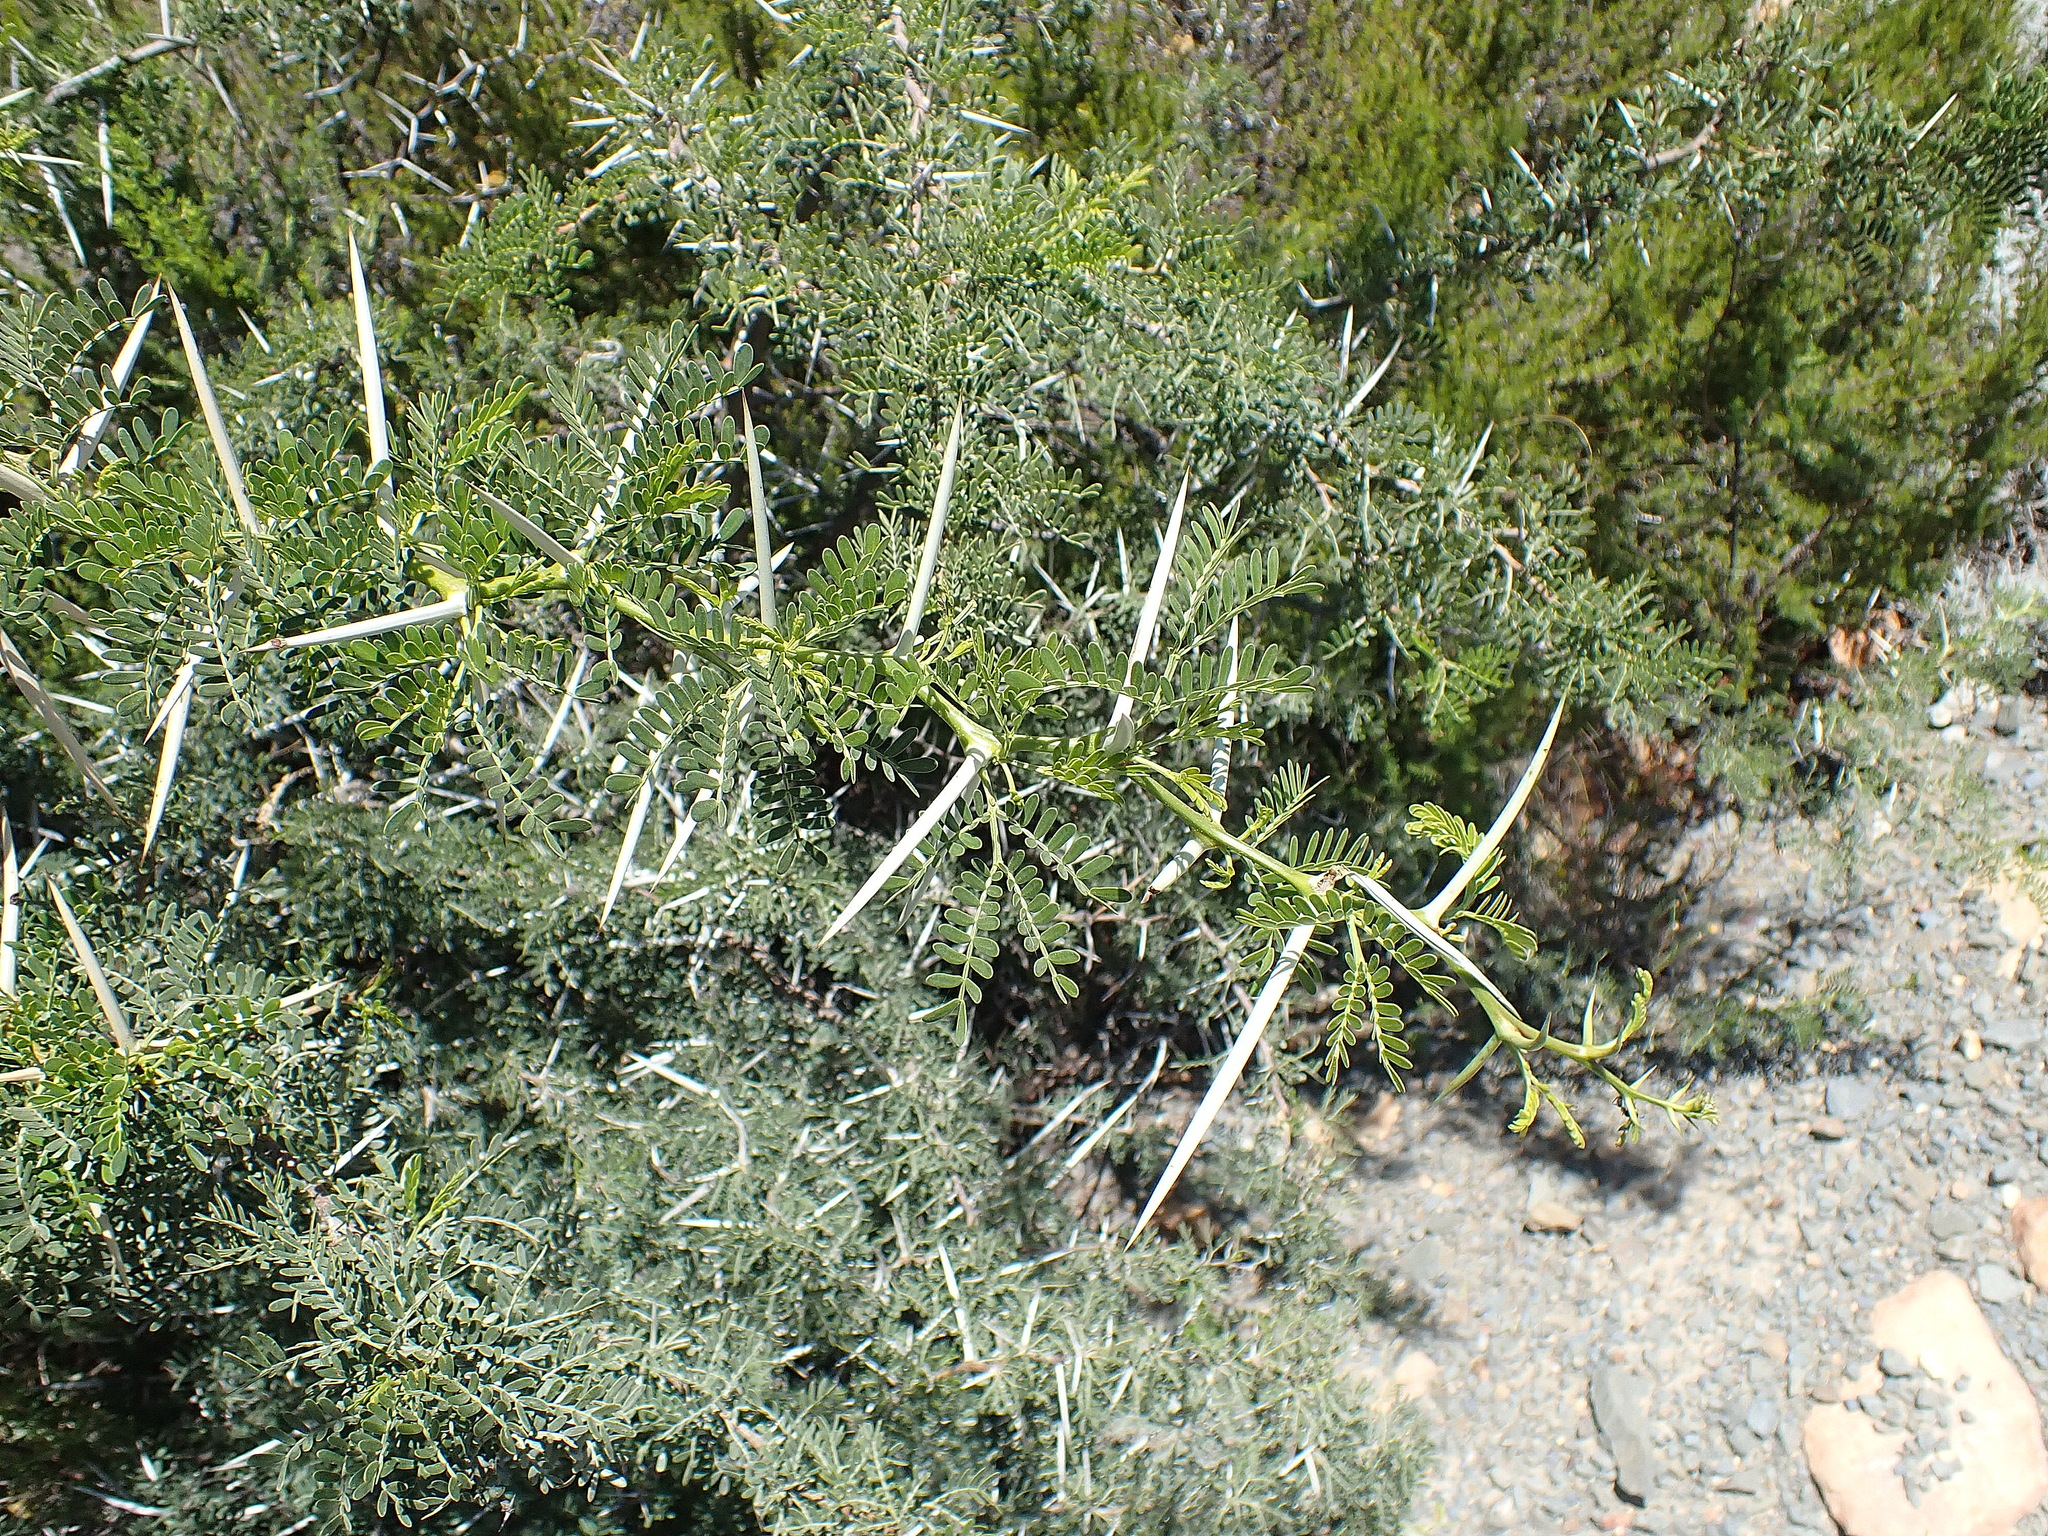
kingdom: Plantae
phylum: Tracheophyta
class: Magnoliopsida
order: Fabales
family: Fabaceae
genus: Vachellia
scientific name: Vachellia karroo
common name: Sweet thorn
